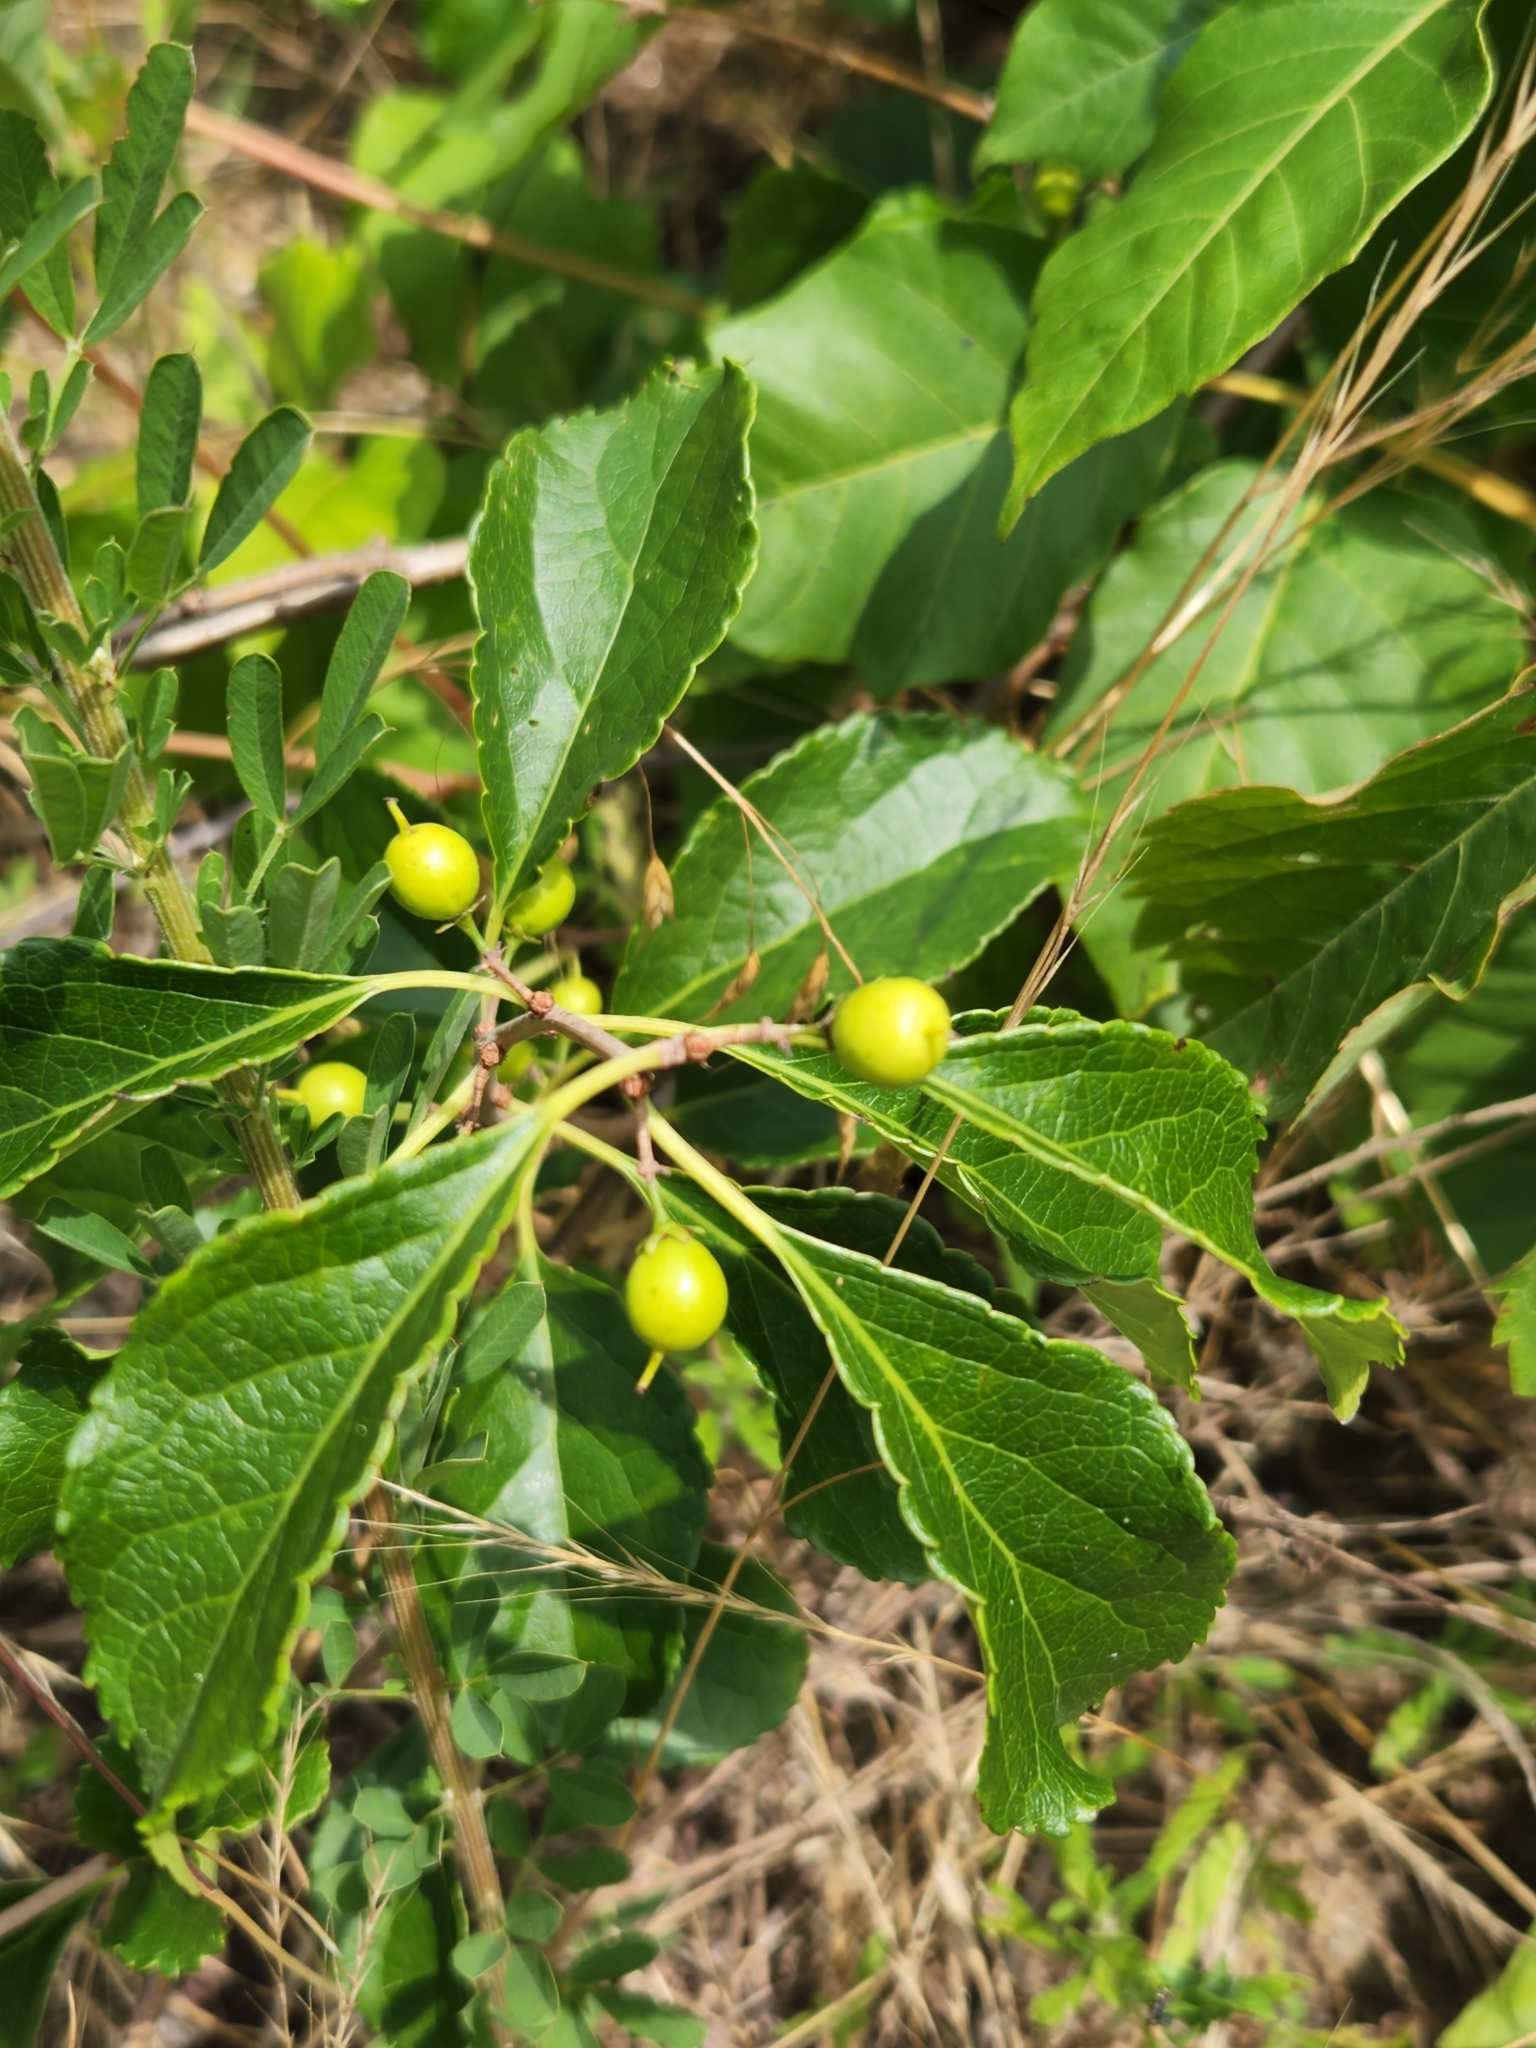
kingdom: Plantae
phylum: Tracheophyta
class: Magnoliopsida
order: Celastrales
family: Celastraceae
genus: Celastrus
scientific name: Celastrus orbiculatus
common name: Oriental bittersweet
